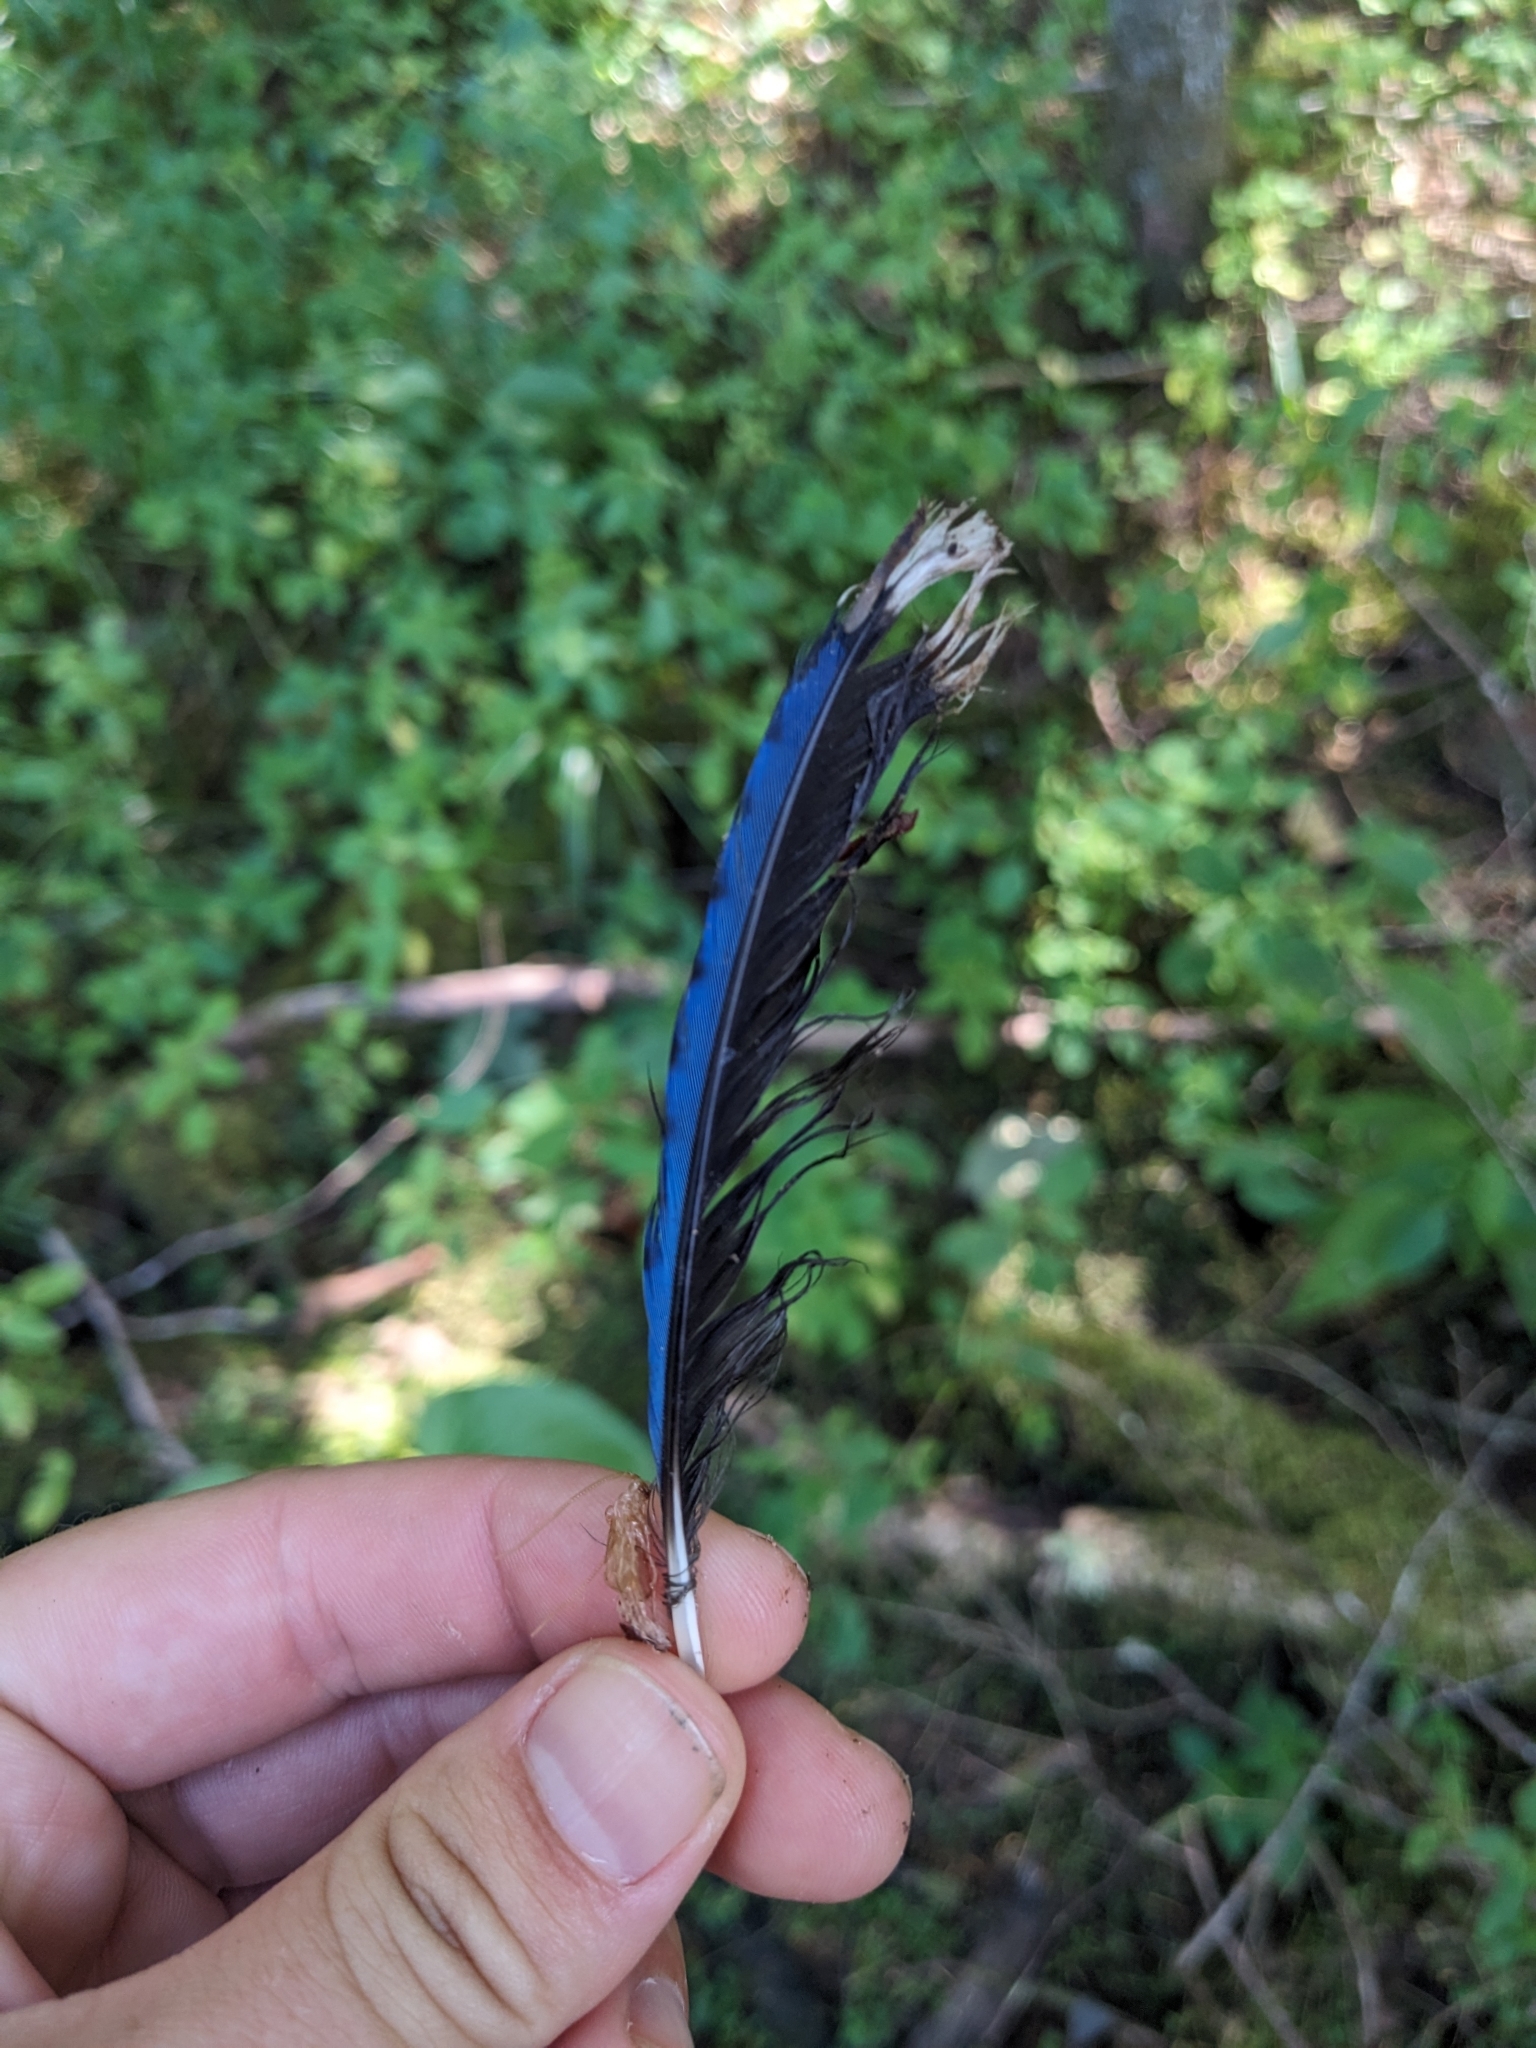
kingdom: Animalia
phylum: Chordata
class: Aves
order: Passeriformes
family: Corvidae
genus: Cyanocitta
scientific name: Cyanocitta cristata
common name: Blue jay
